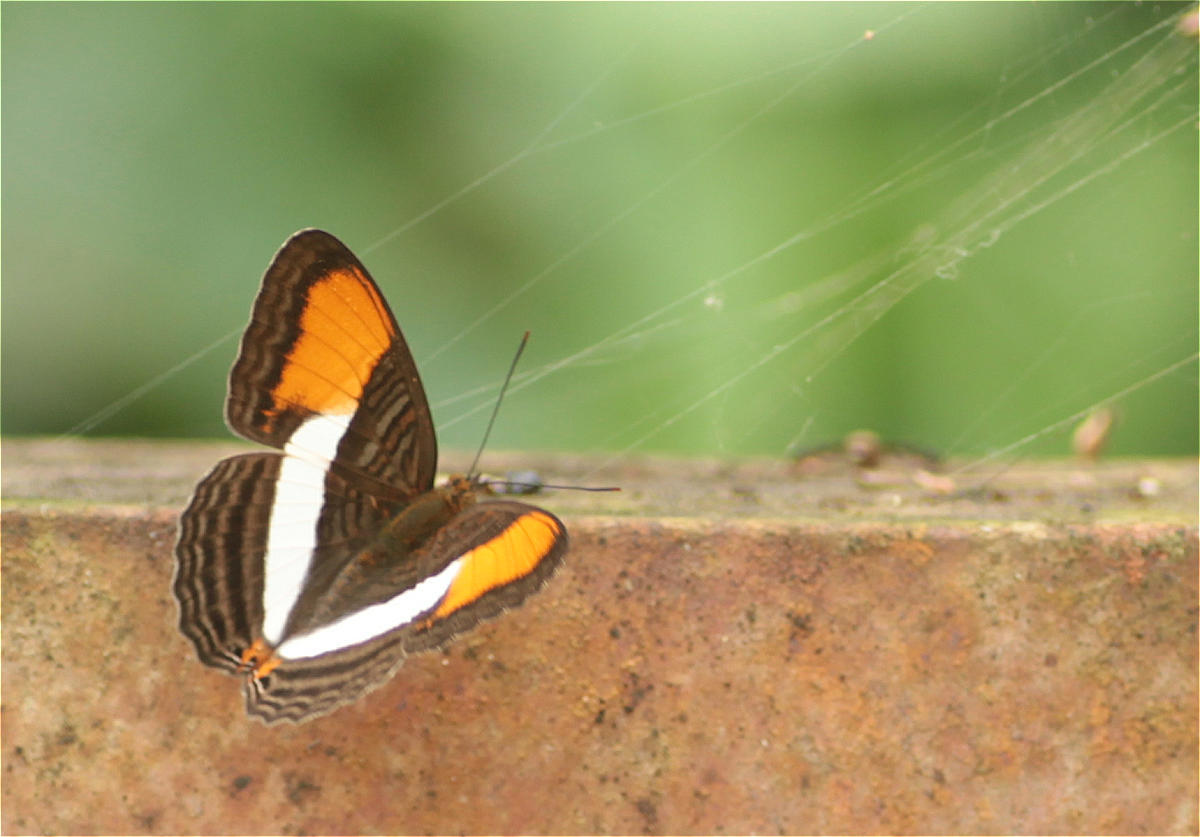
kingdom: Animalia
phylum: Arthropoda
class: Insecta
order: Lepidoptera
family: Nymphalidae
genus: Limenitis
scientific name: Limenitis cytherea
